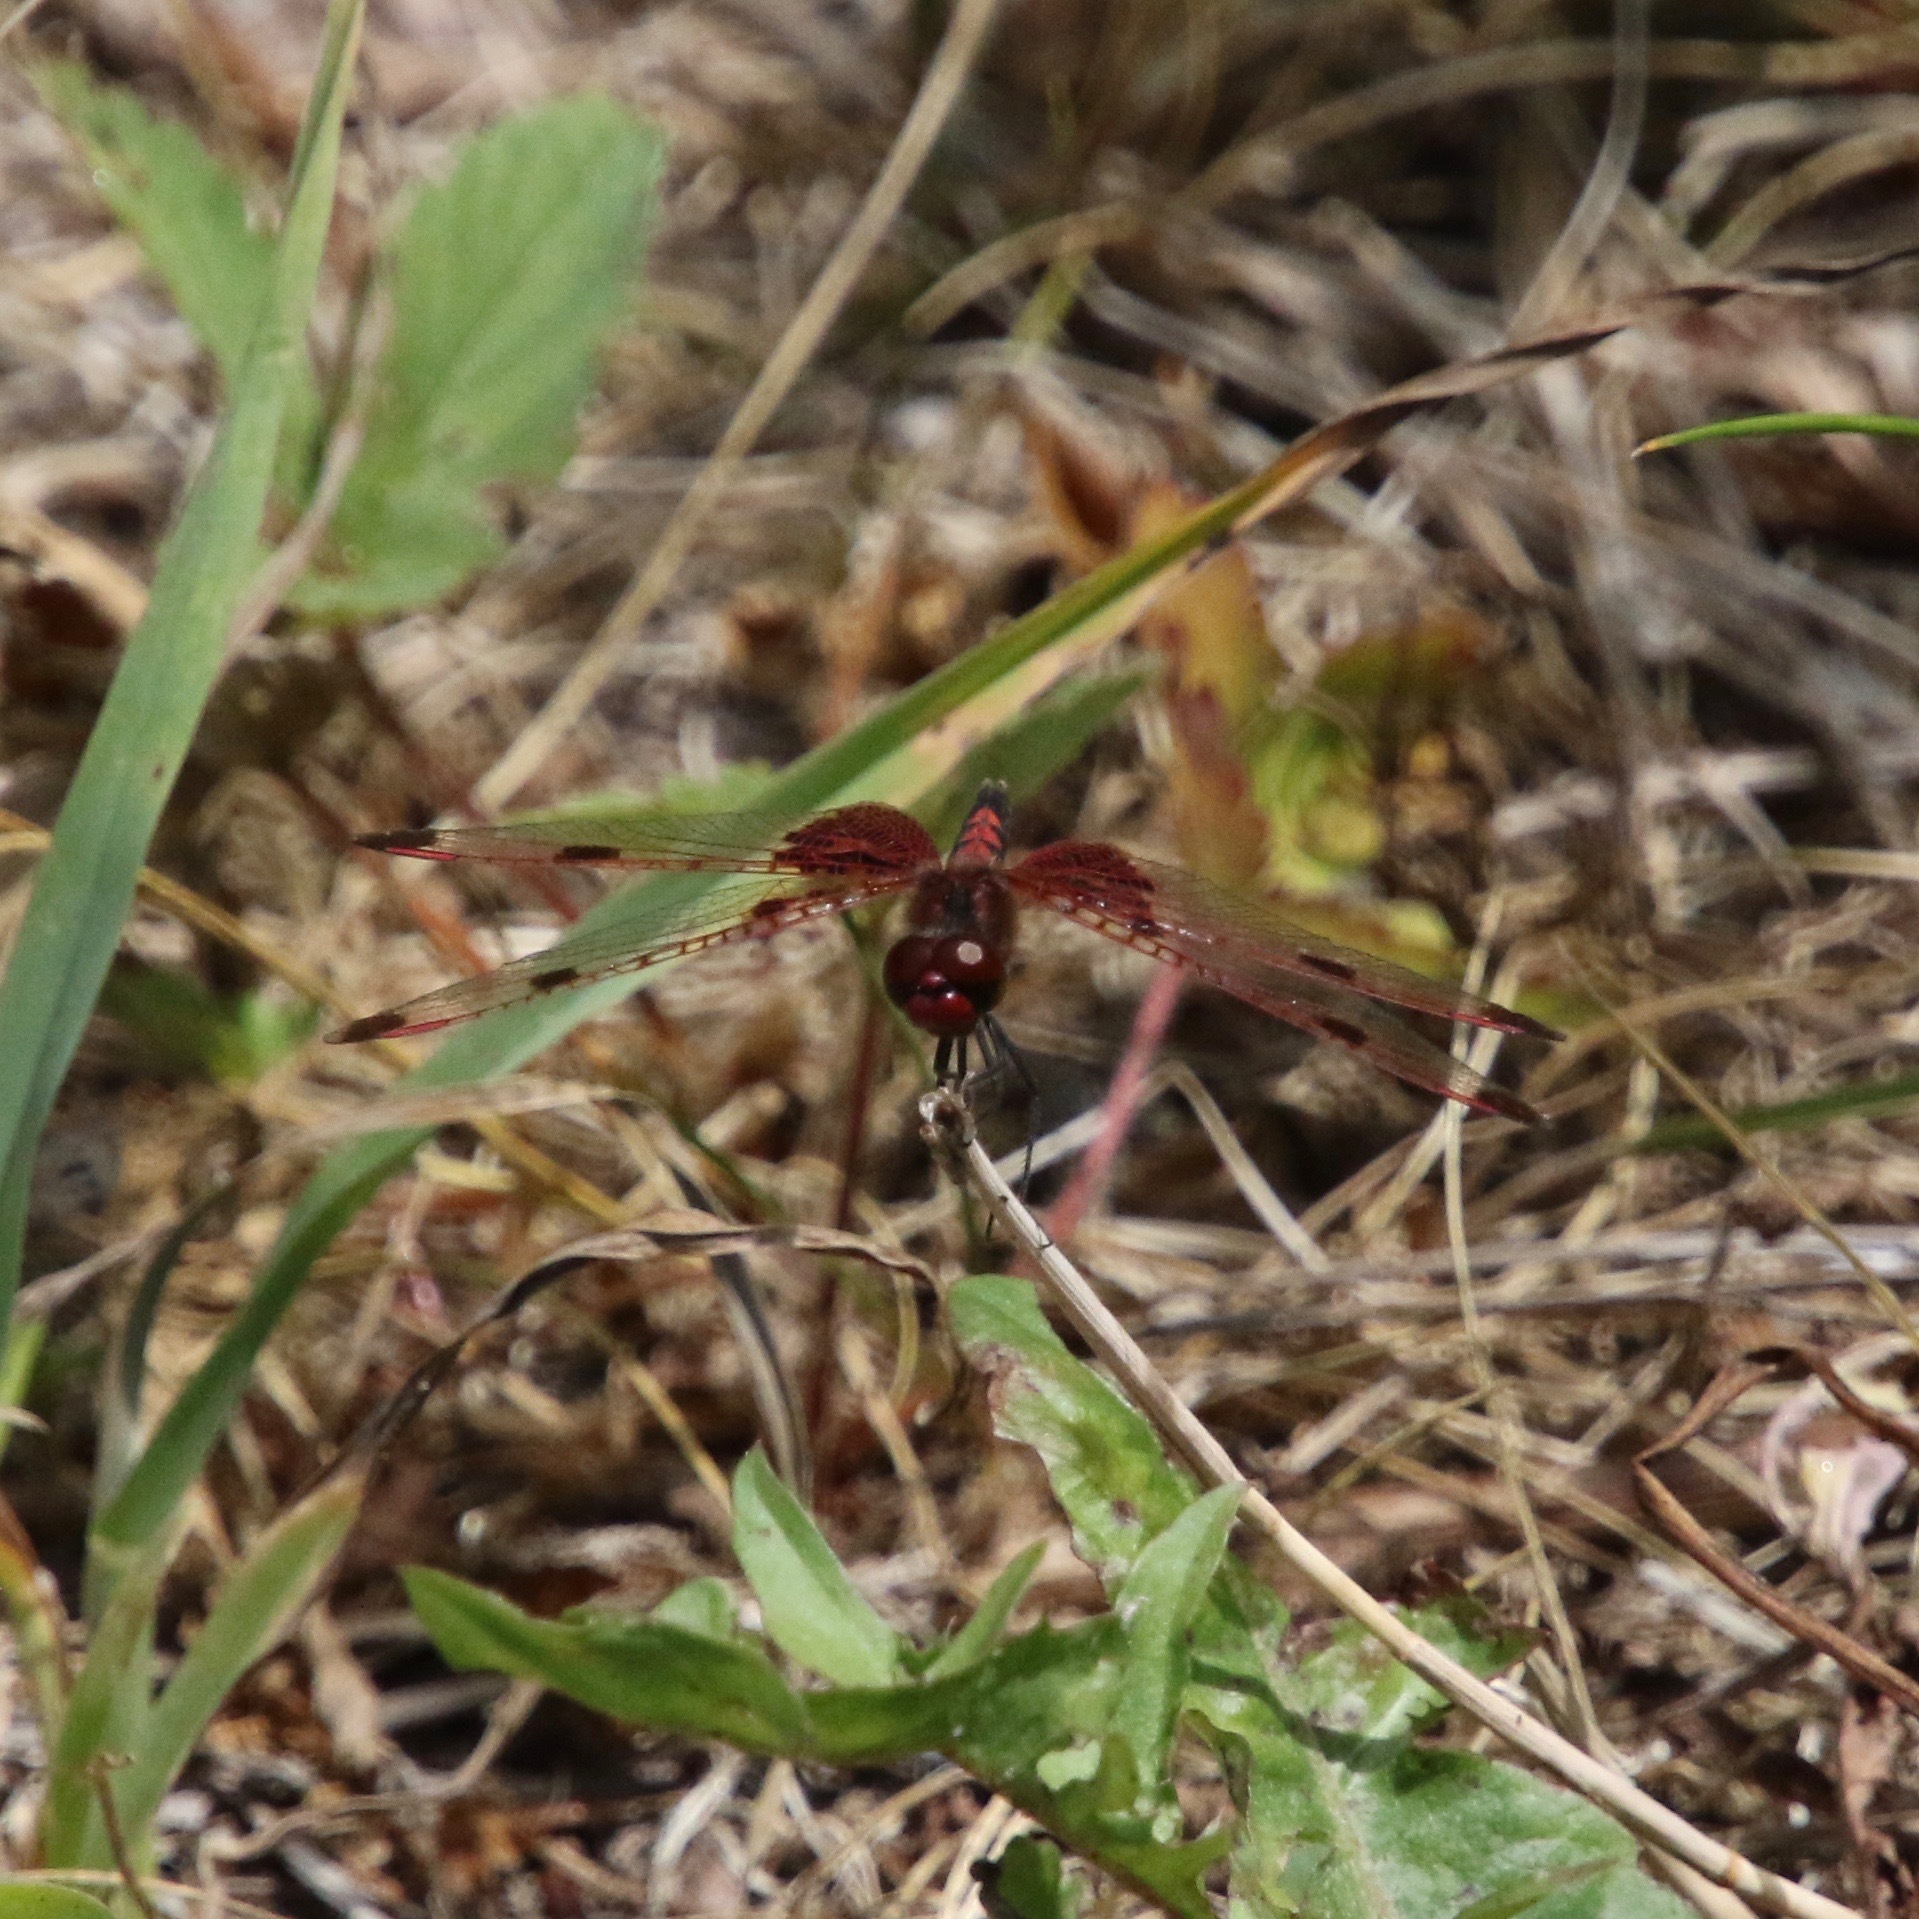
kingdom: Animalia
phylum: Arthropoda
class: Insecta
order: Odonata
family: Libellulidae
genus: Celithemis
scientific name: Celithemis elisa
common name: Calico pennant
